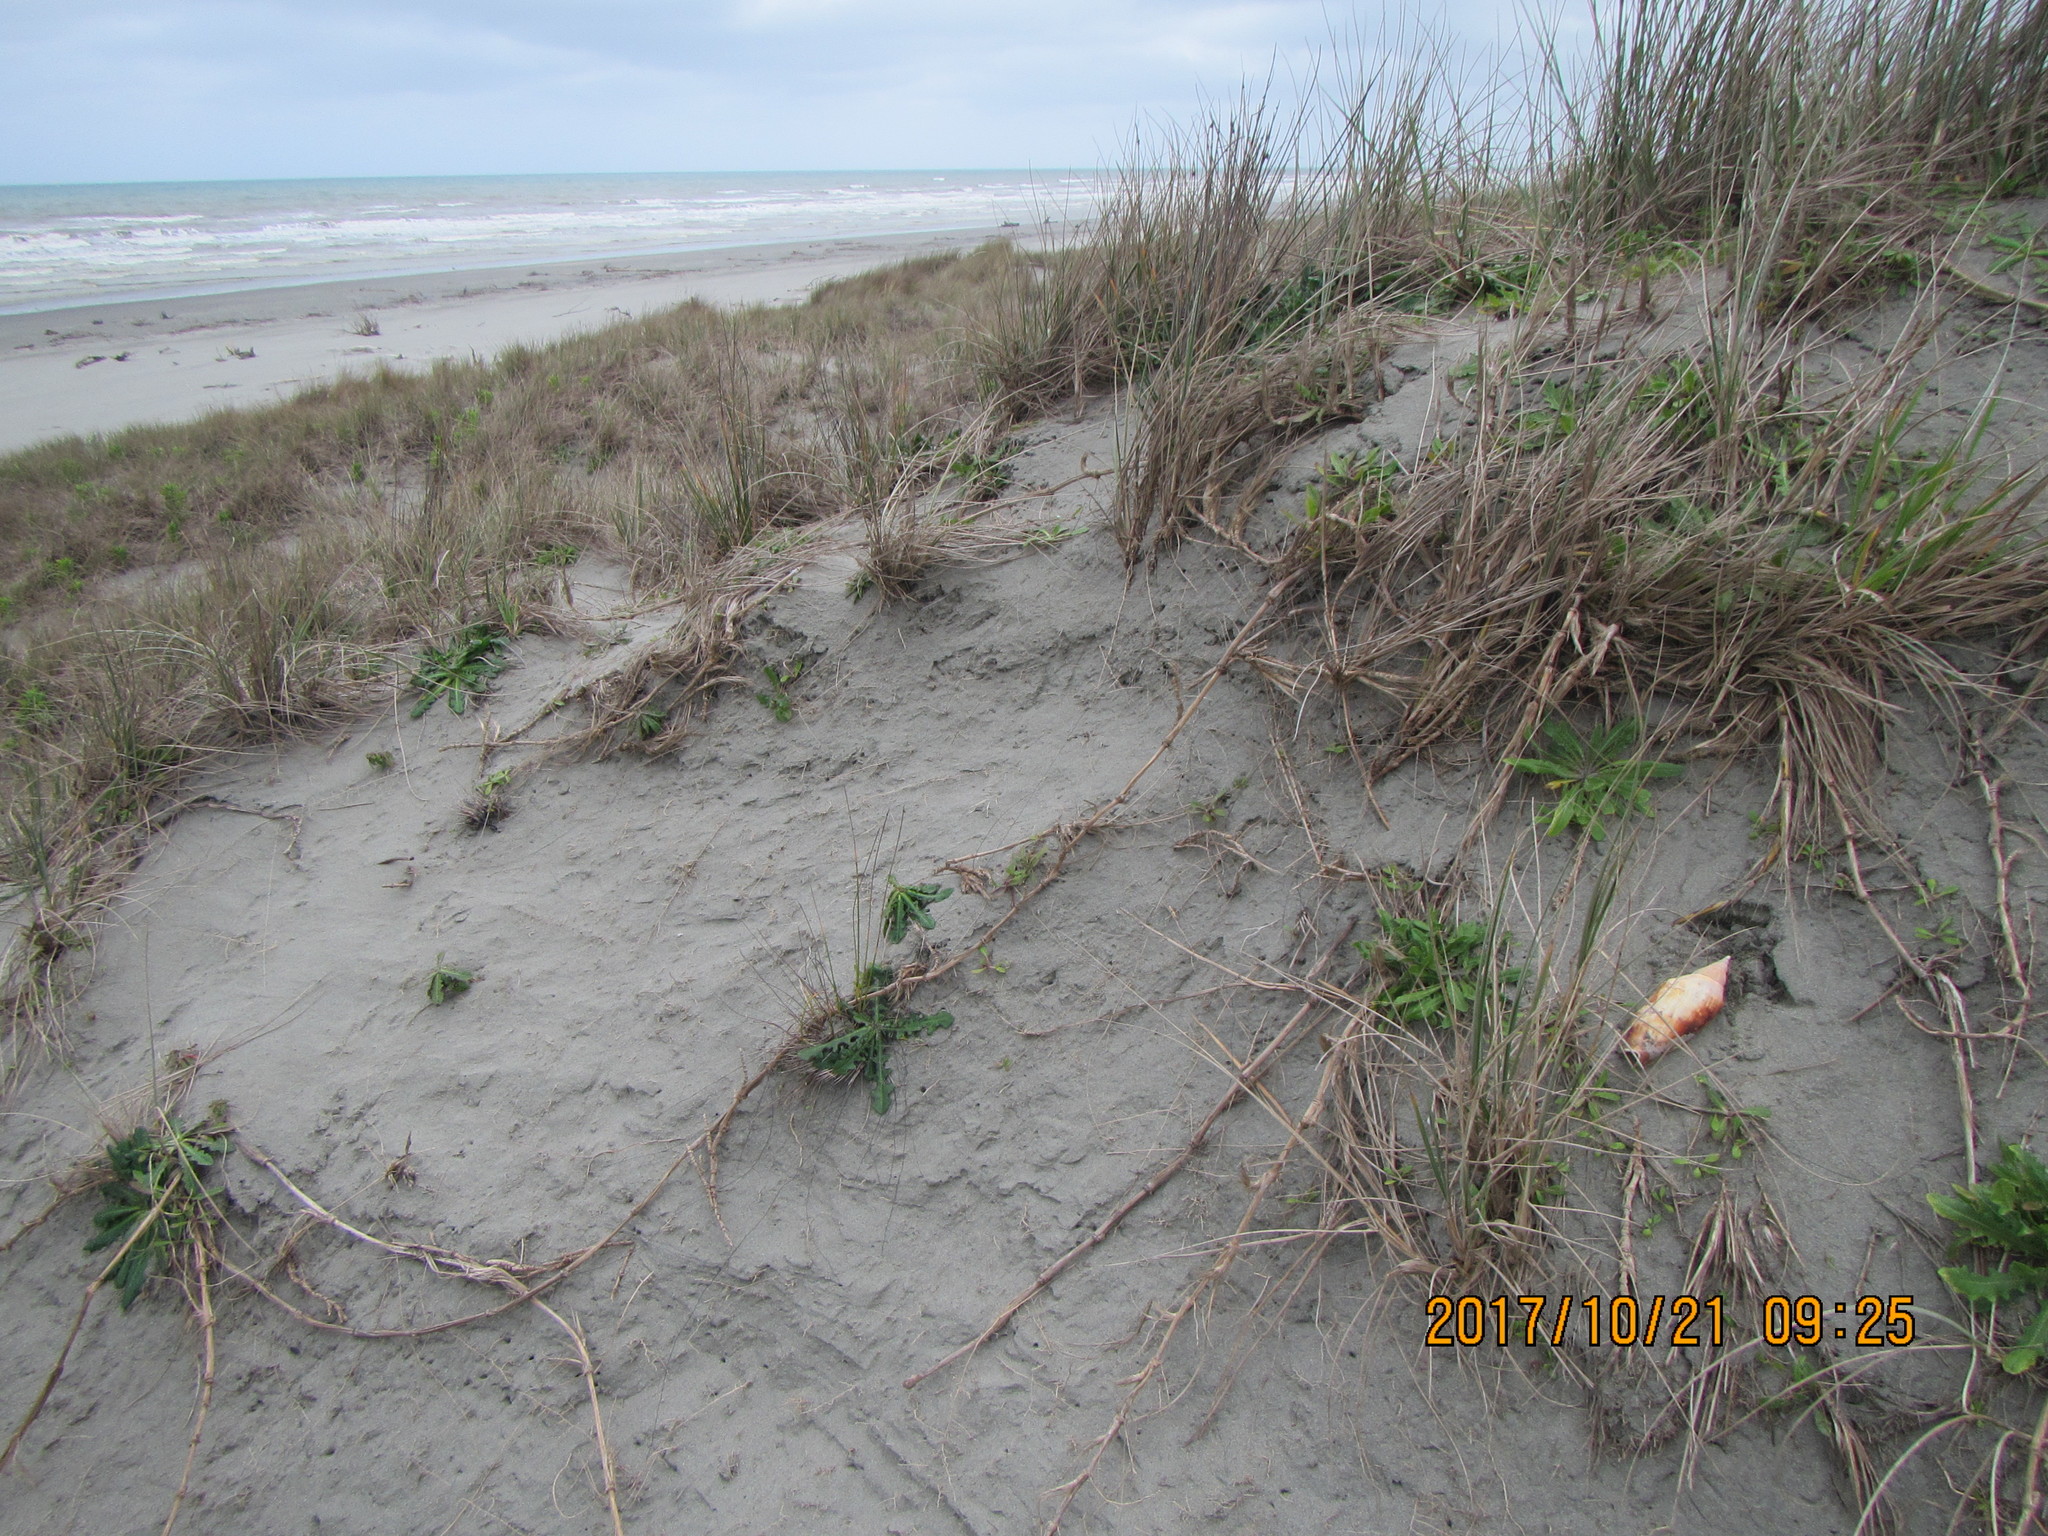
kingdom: Animalia
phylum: Mollusca
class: Gastropoda
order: Neogastropoda
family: Volutidae
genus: Alcithoe
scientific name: Alcithoe arabica
